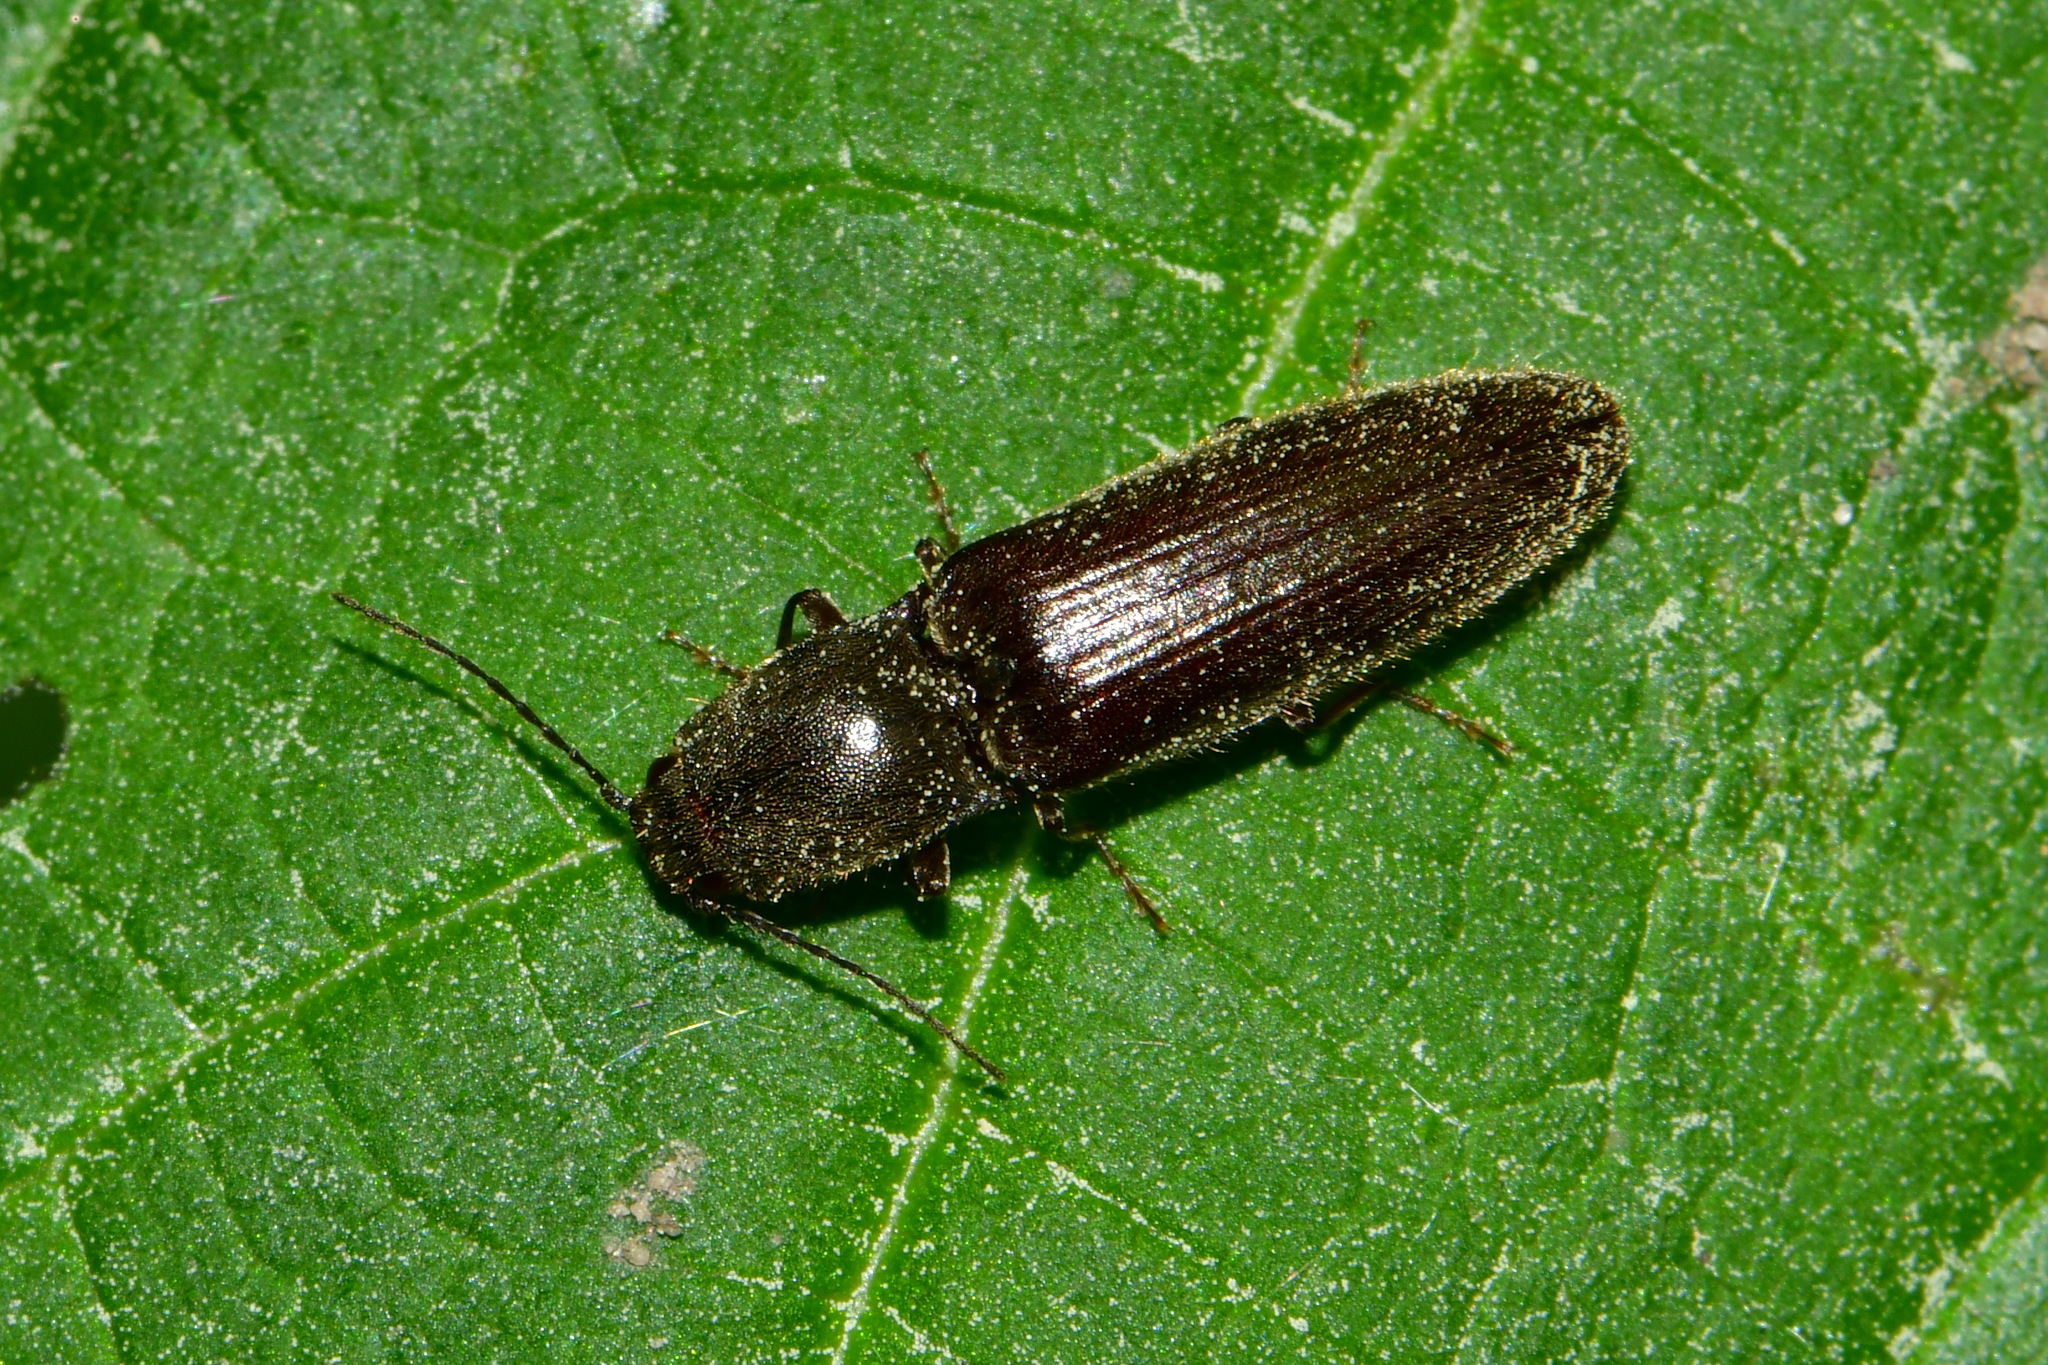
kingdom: Animalia
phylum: Arthropoda
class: Insecta
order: Coleoptera
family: Elateridae
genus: Athous
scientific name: Athous haemorrhoidalis
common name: Red-brown click beetle
